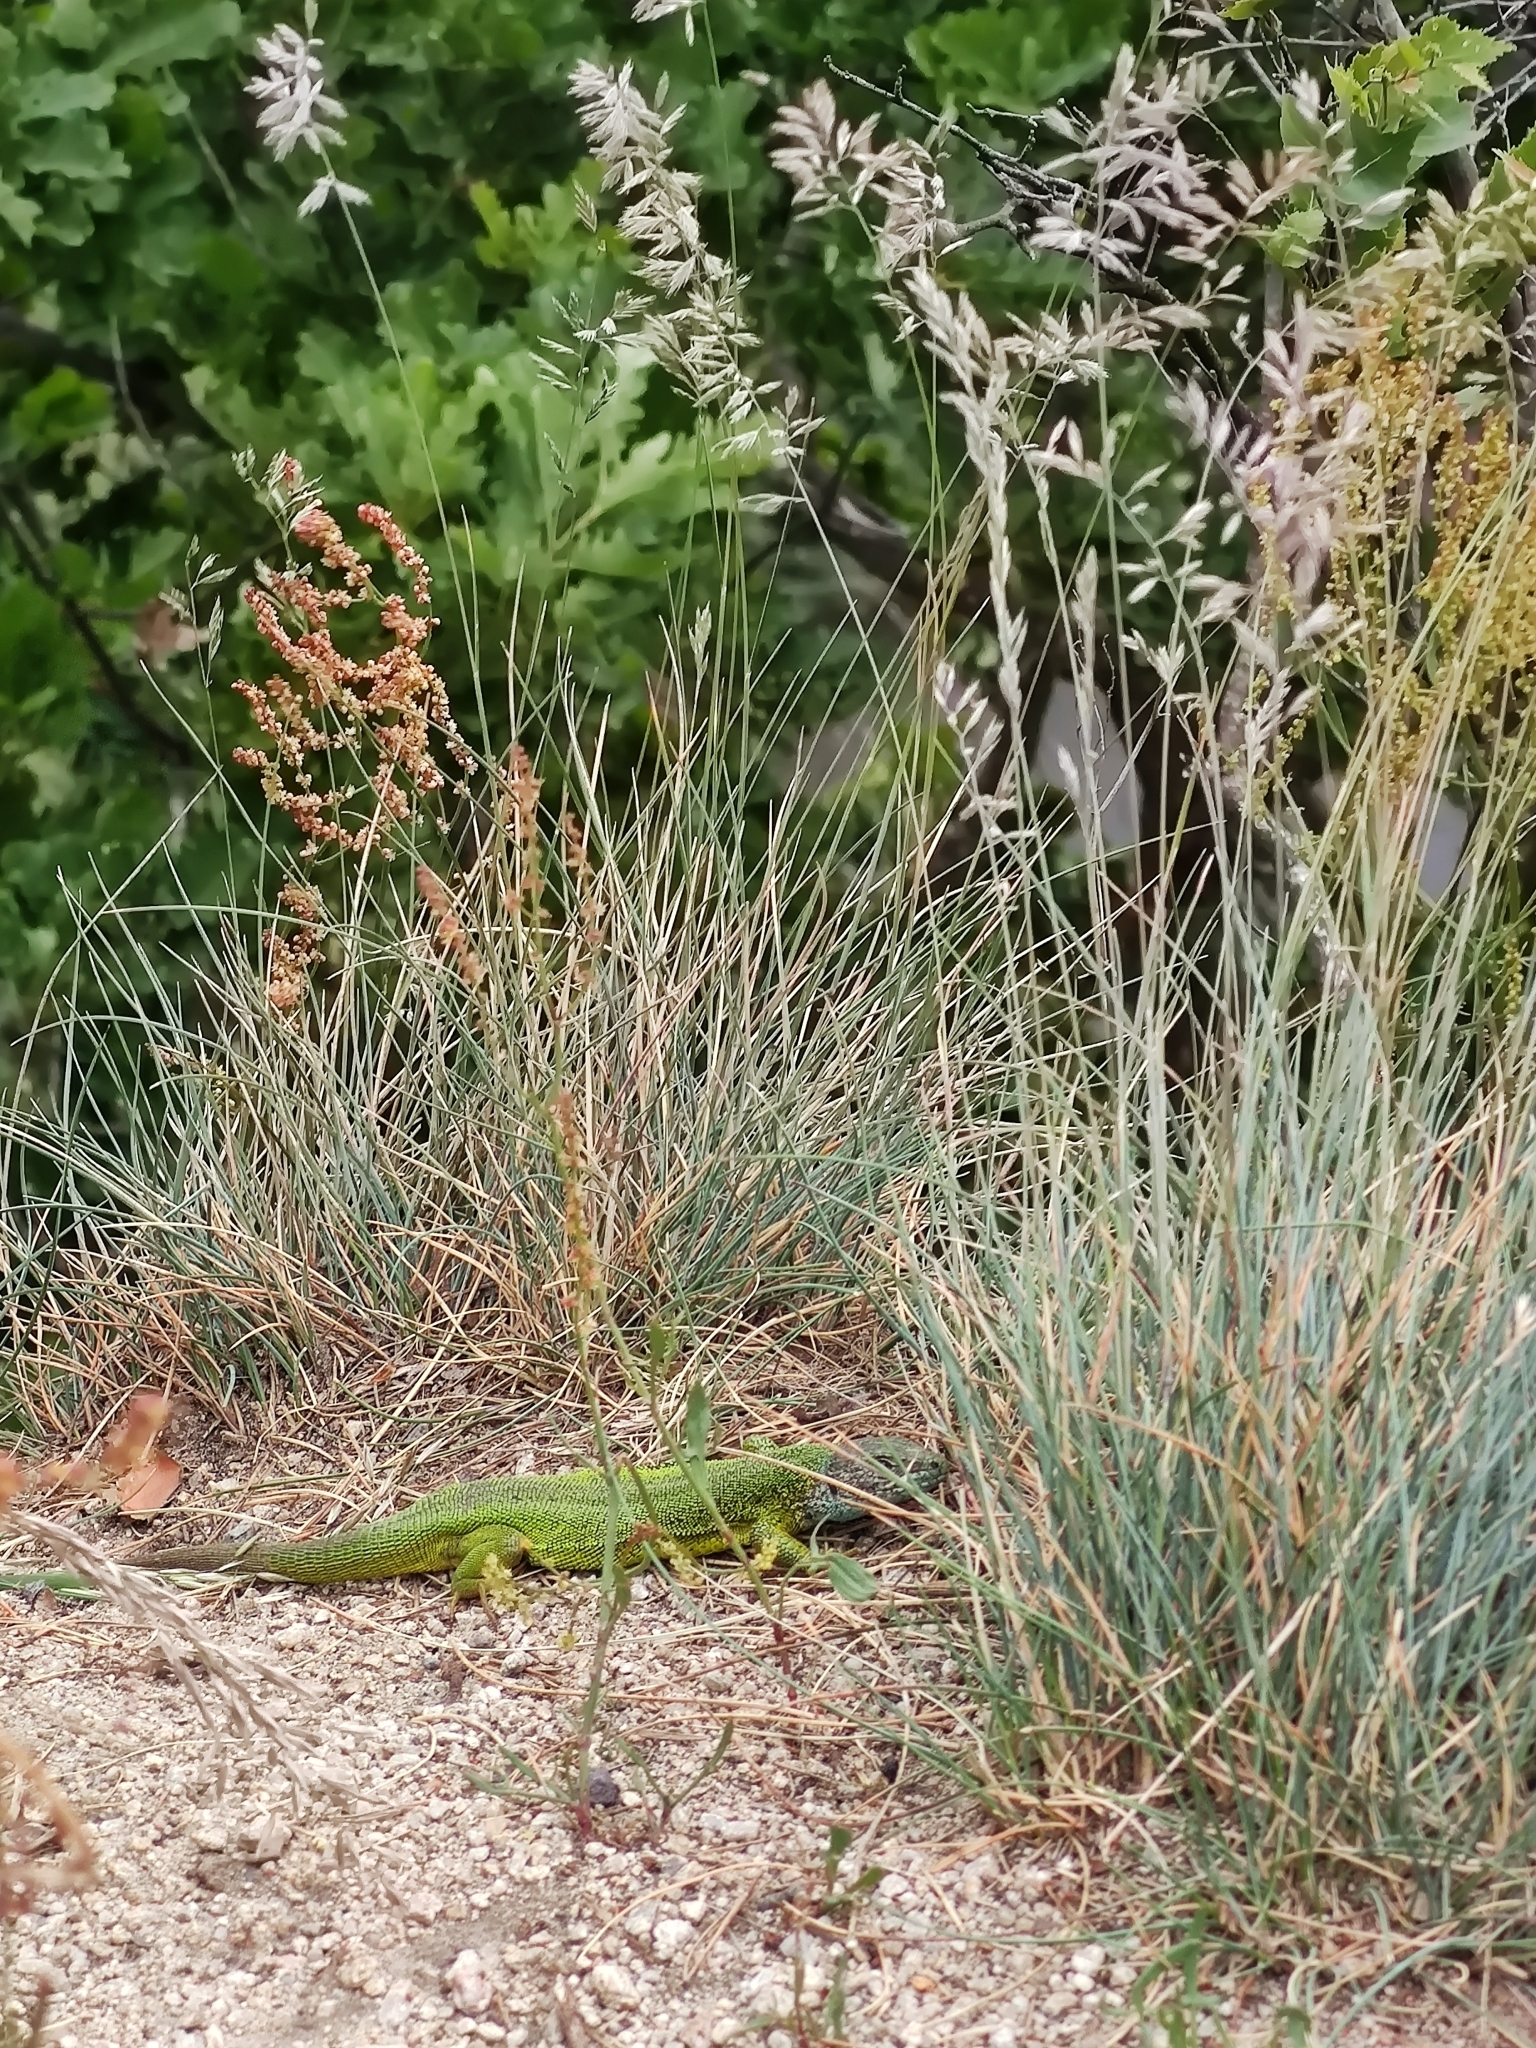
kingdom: Animalia
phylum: Chordata
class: Squamata
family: Lacertidae
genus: Lacerta
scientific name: Lacerta viridis
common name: European green lizard
